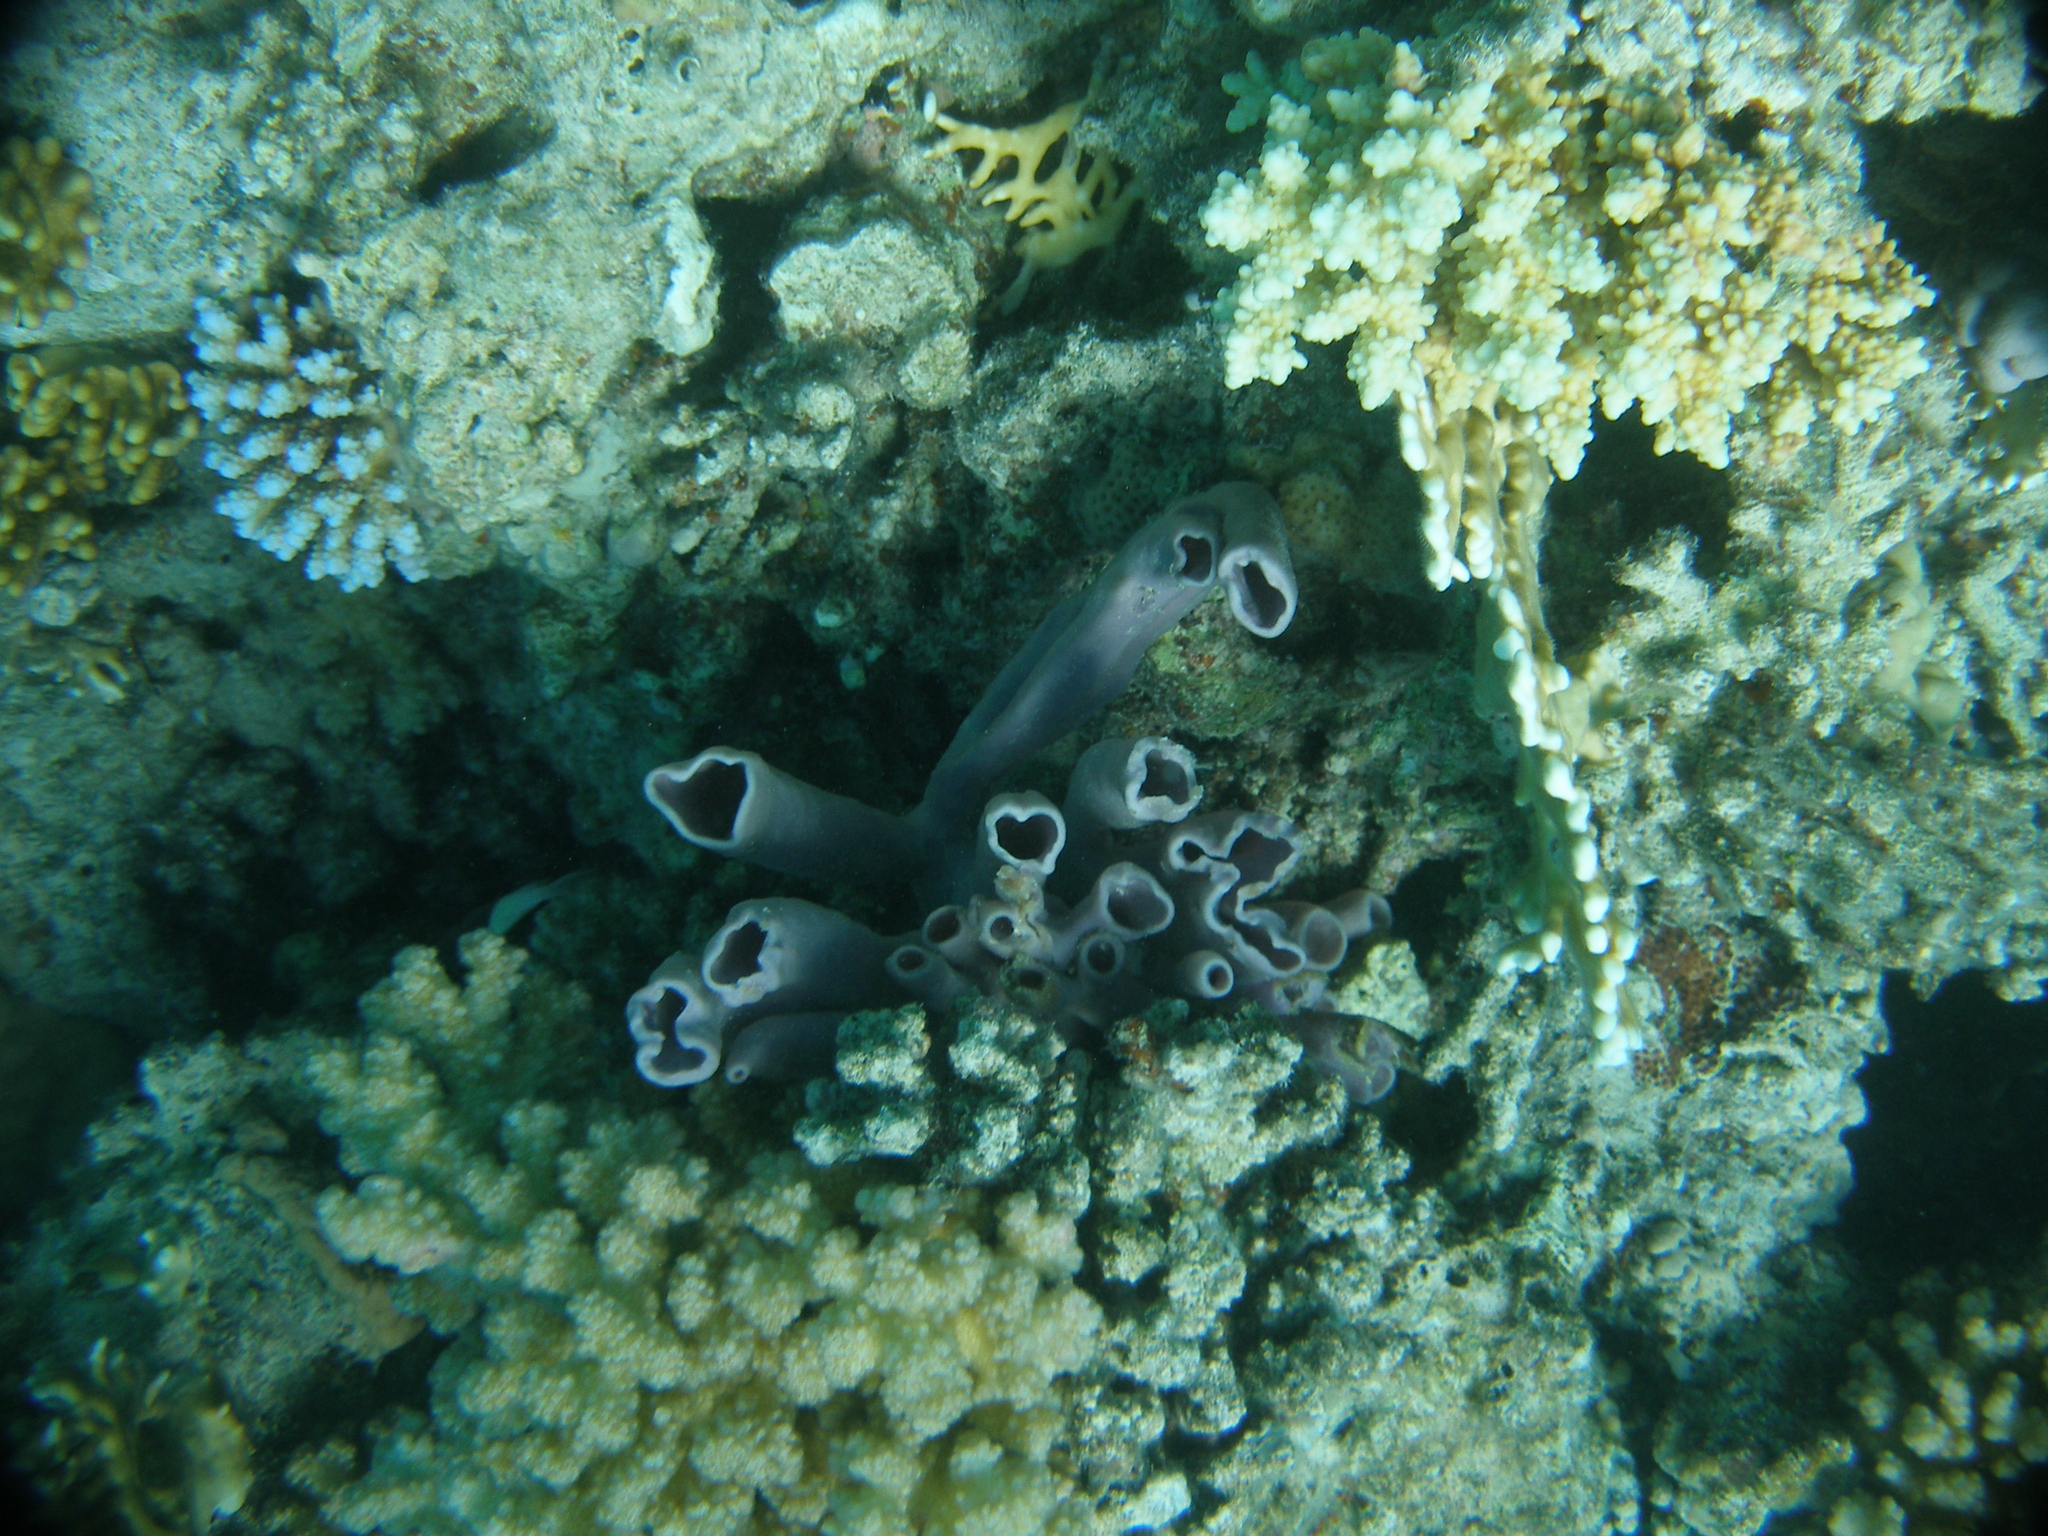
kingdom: Animalia
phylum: Porifera
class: Demospongiae
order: Haplosclerida
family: Callyspongiidae
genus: Callyspongia
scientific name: Callyspongia siphonella
